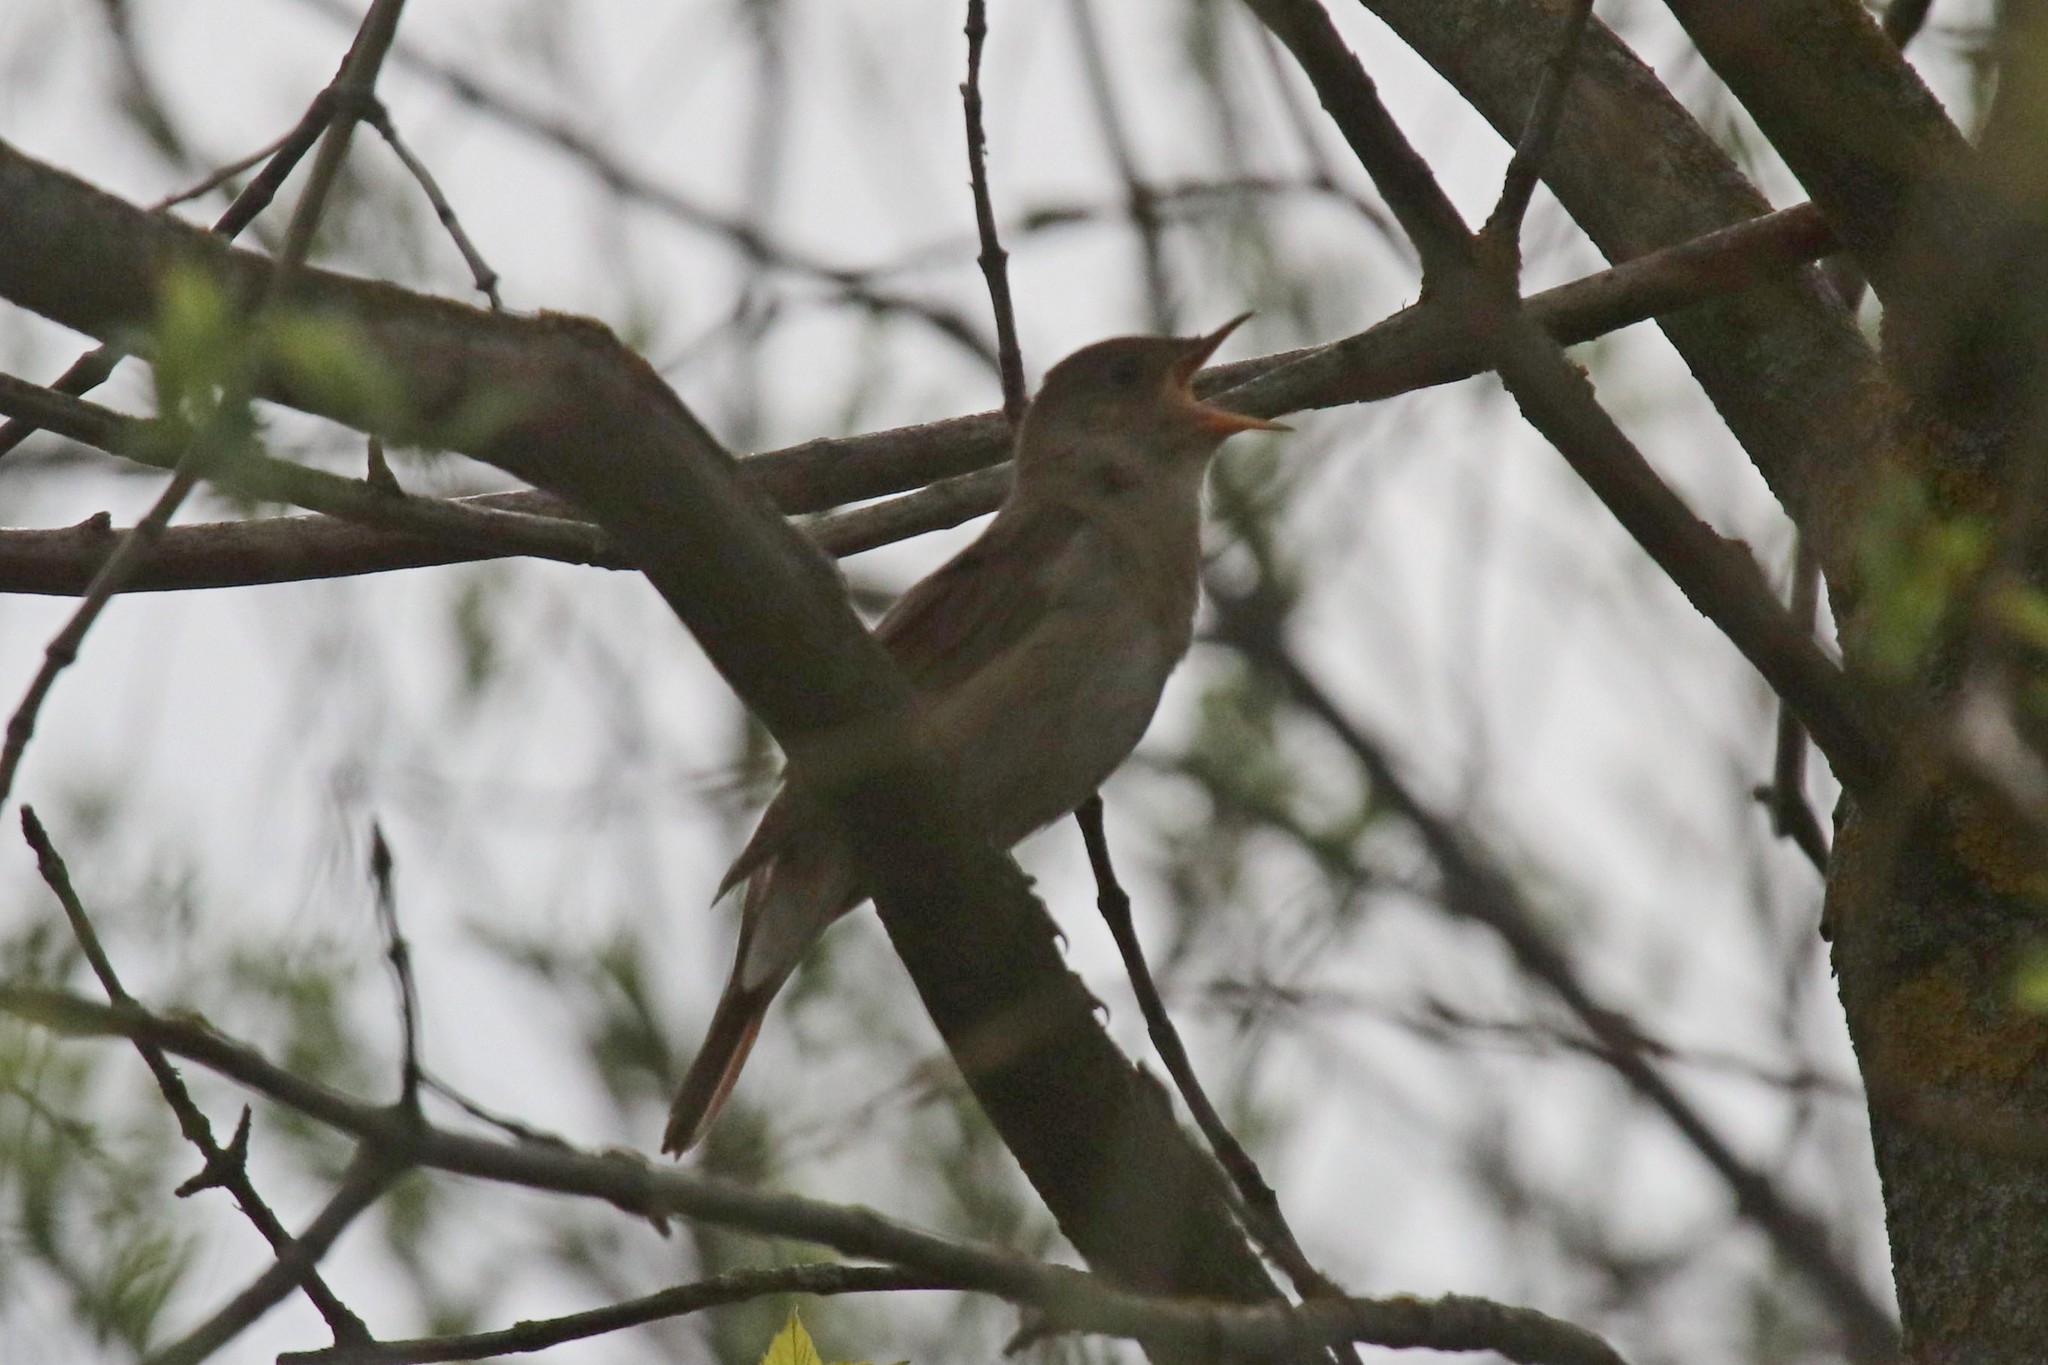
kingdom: Animalia
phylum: Chordata
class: Aves
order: Passeriformes
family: Muscicapidae
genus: Luscinia
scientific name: Luscinia luscinia
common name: Thrush nightingale
